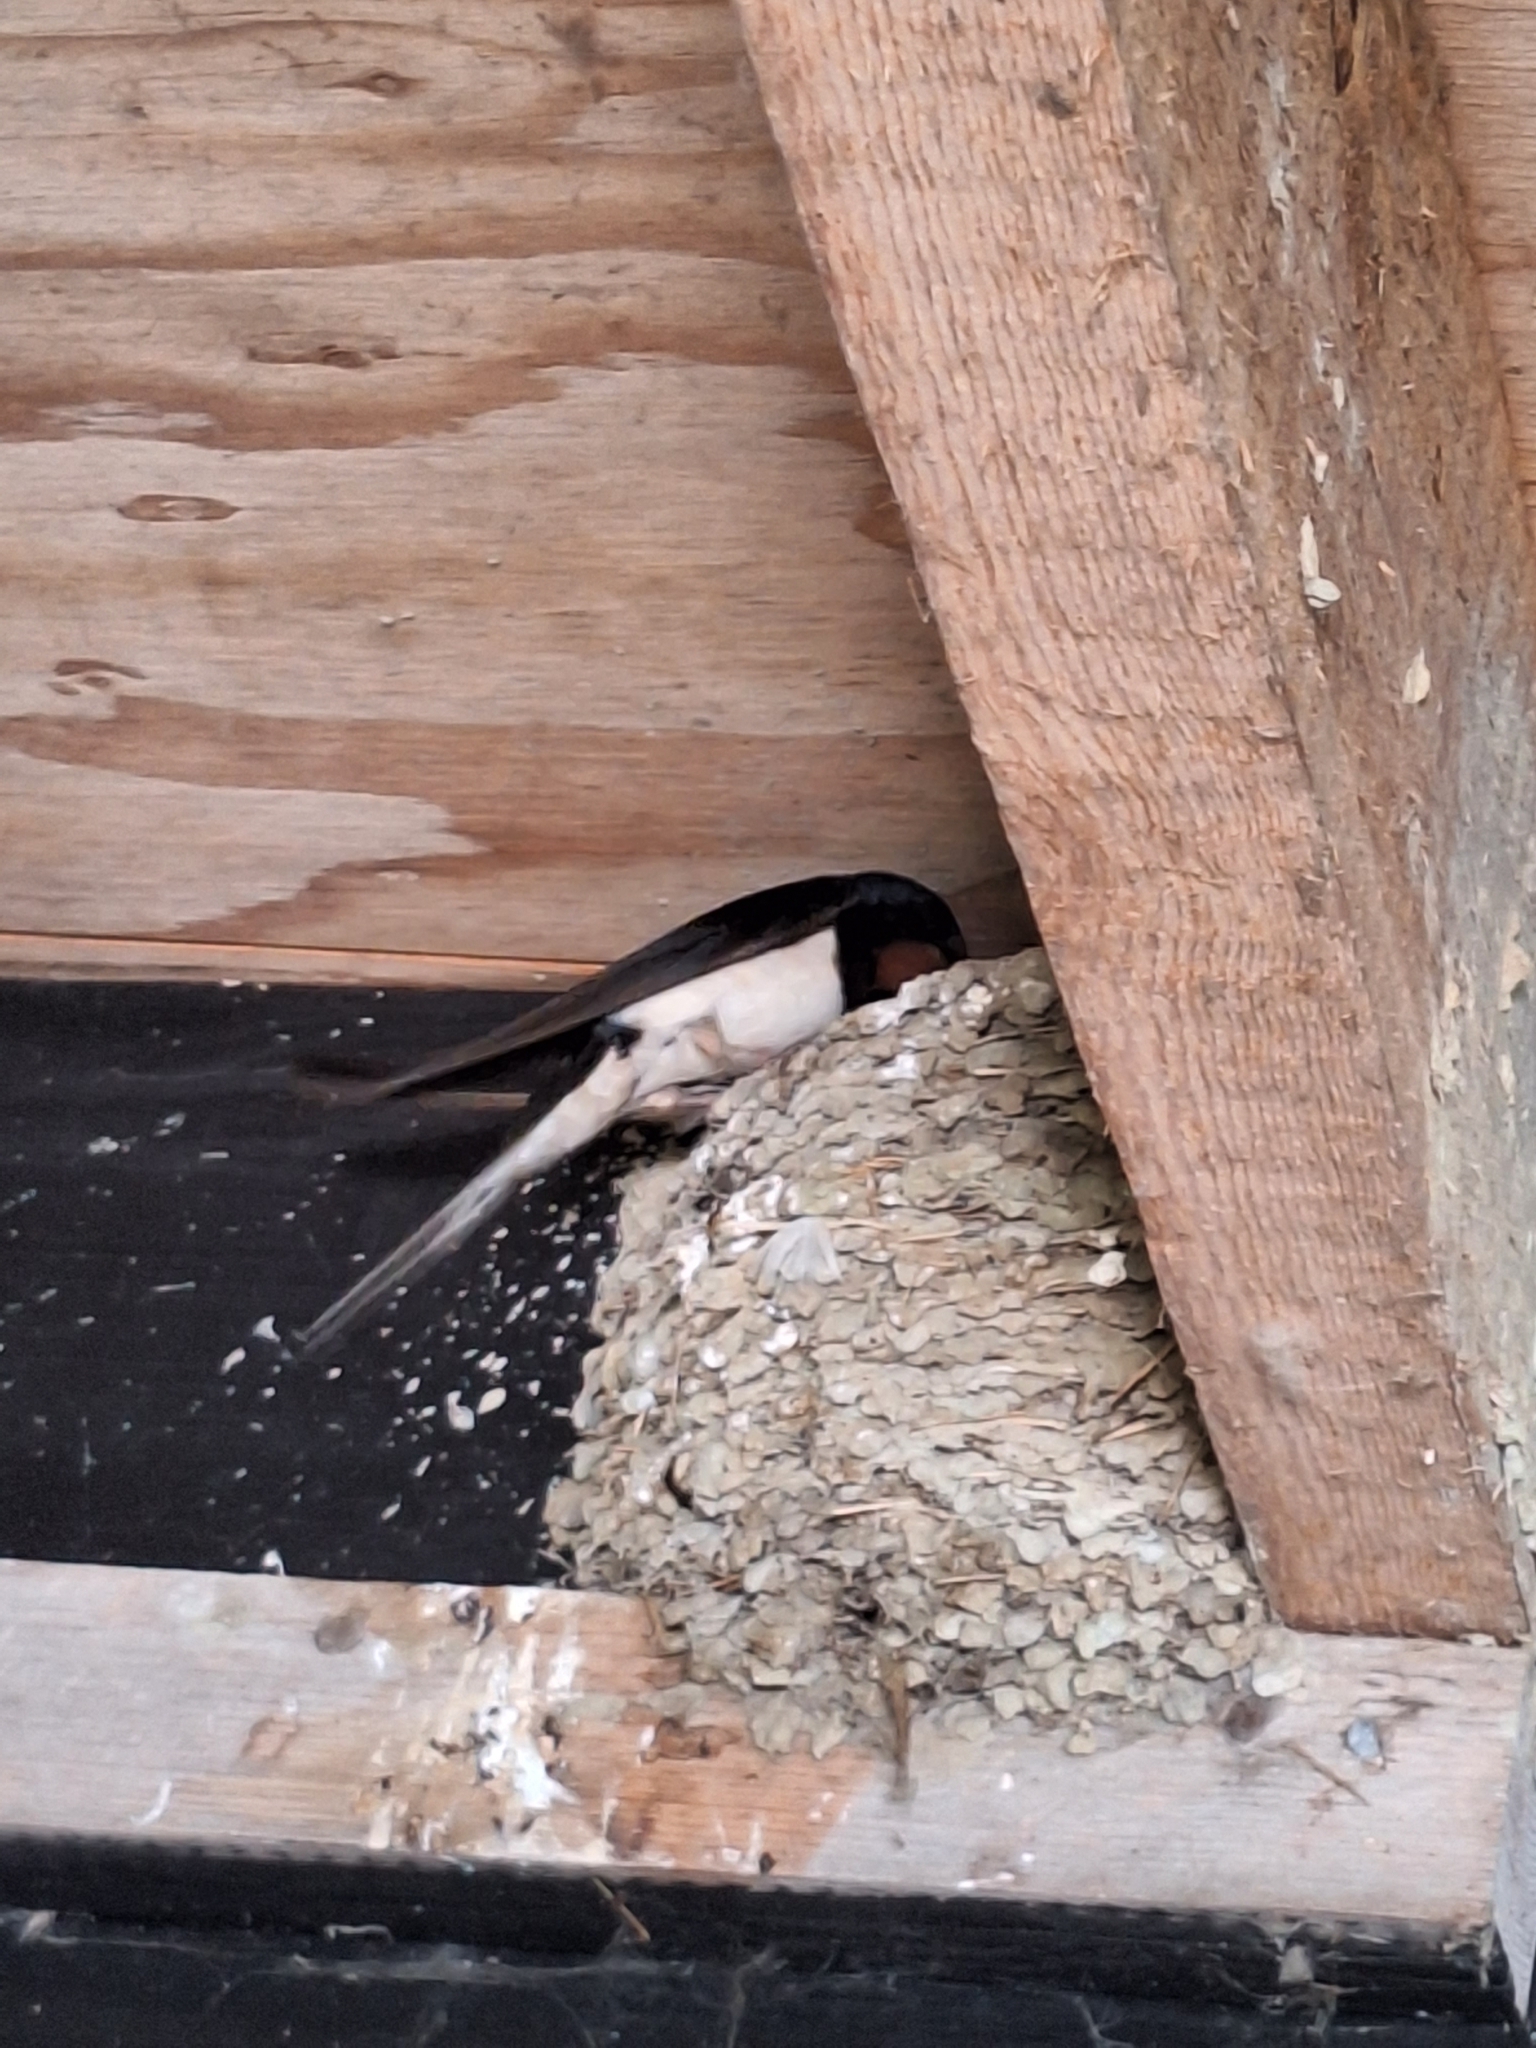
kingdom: Animalia
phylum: Chordata
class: Aves
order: Passeriformes
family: Hirundinidae
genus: Hirundo
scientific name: Hirundo rustica
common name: Barn swallow
